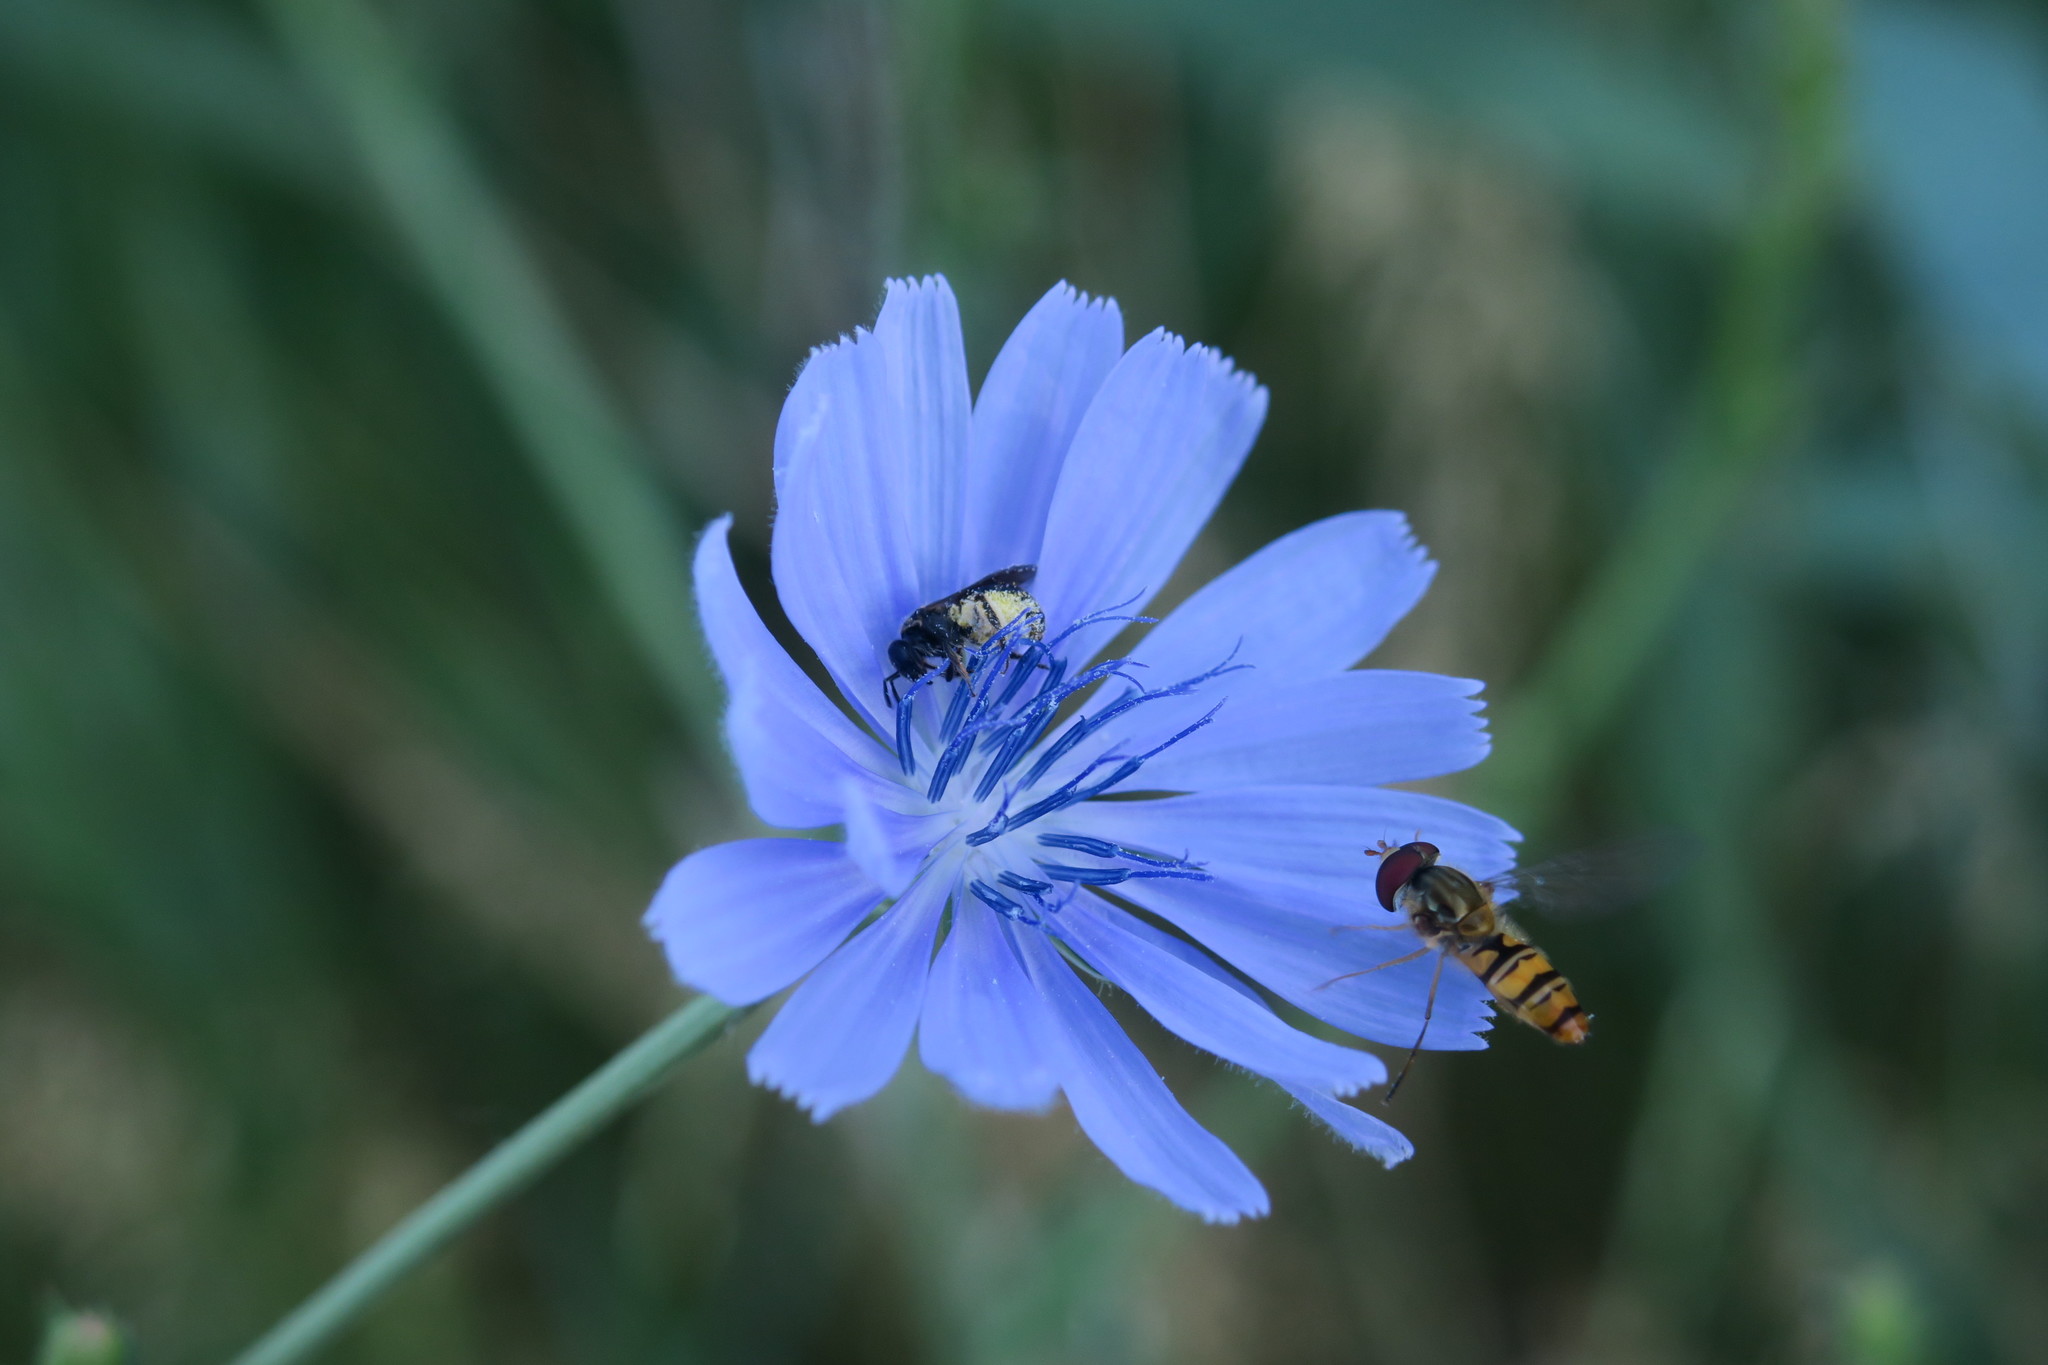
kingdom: Animalia
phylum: Arthropoda
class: Insecta
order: Diptera
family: Syrphidae
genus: Episyrphus
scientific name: Episyrphus balteatus
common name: Marmalade hoverfly
